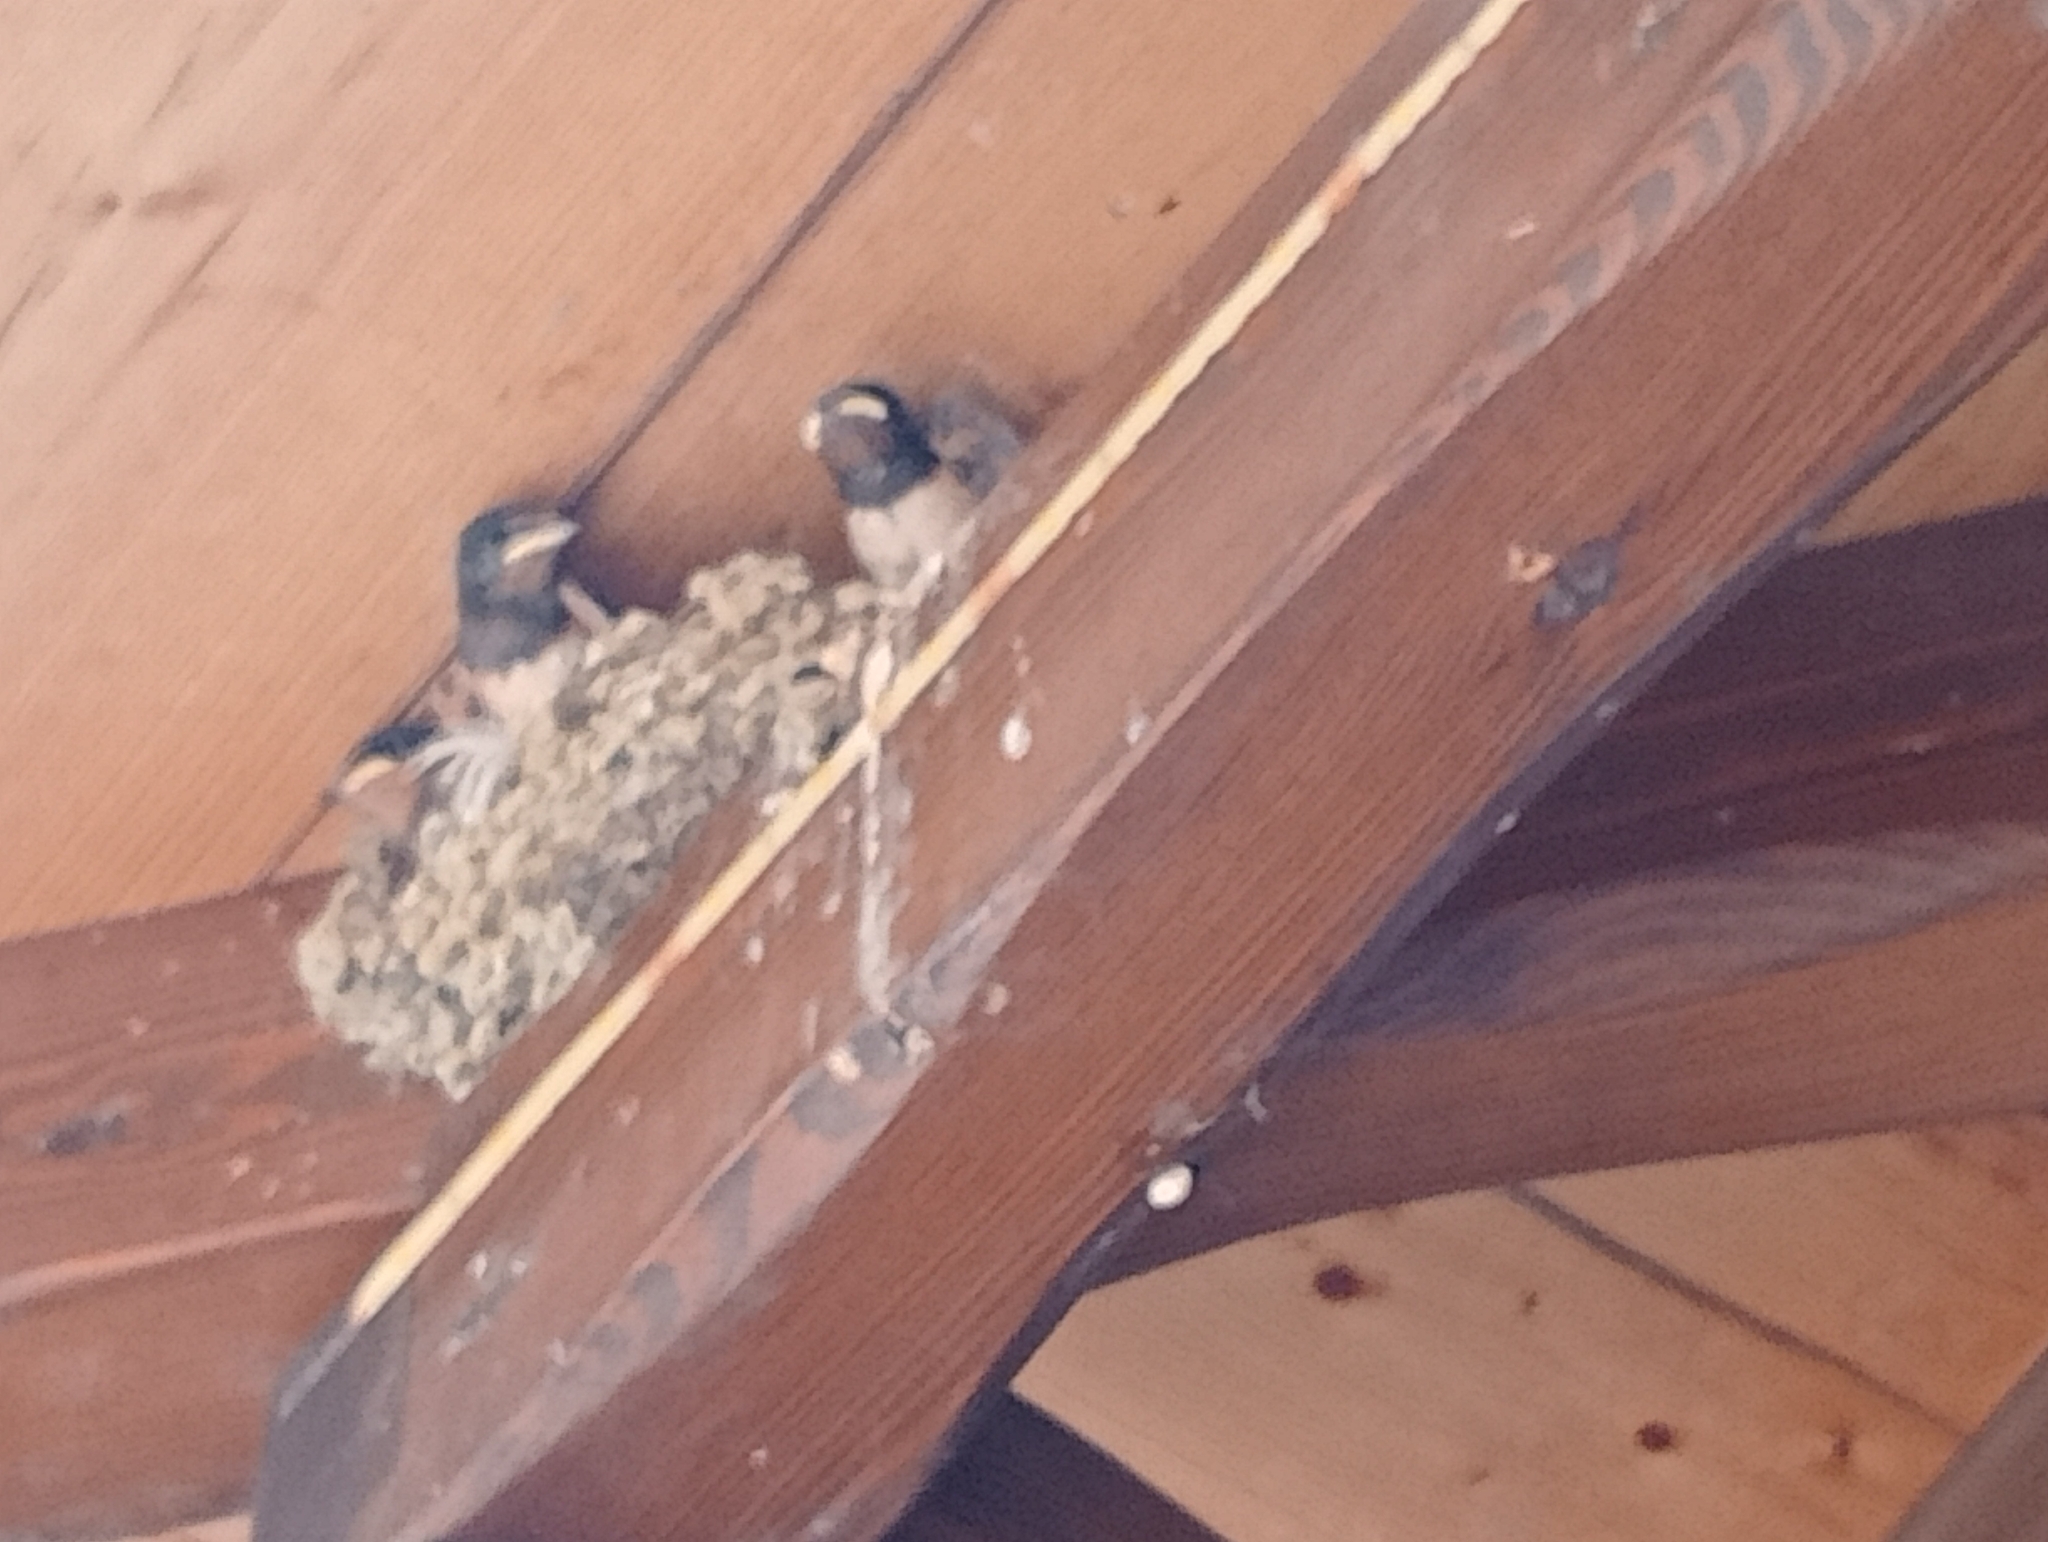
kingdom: Animalia
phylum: Chordata
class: Aves
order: Passeriformes
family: Hirundinidae
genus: Hirundo
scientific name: Hirundo rustica
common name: Barn swallow
